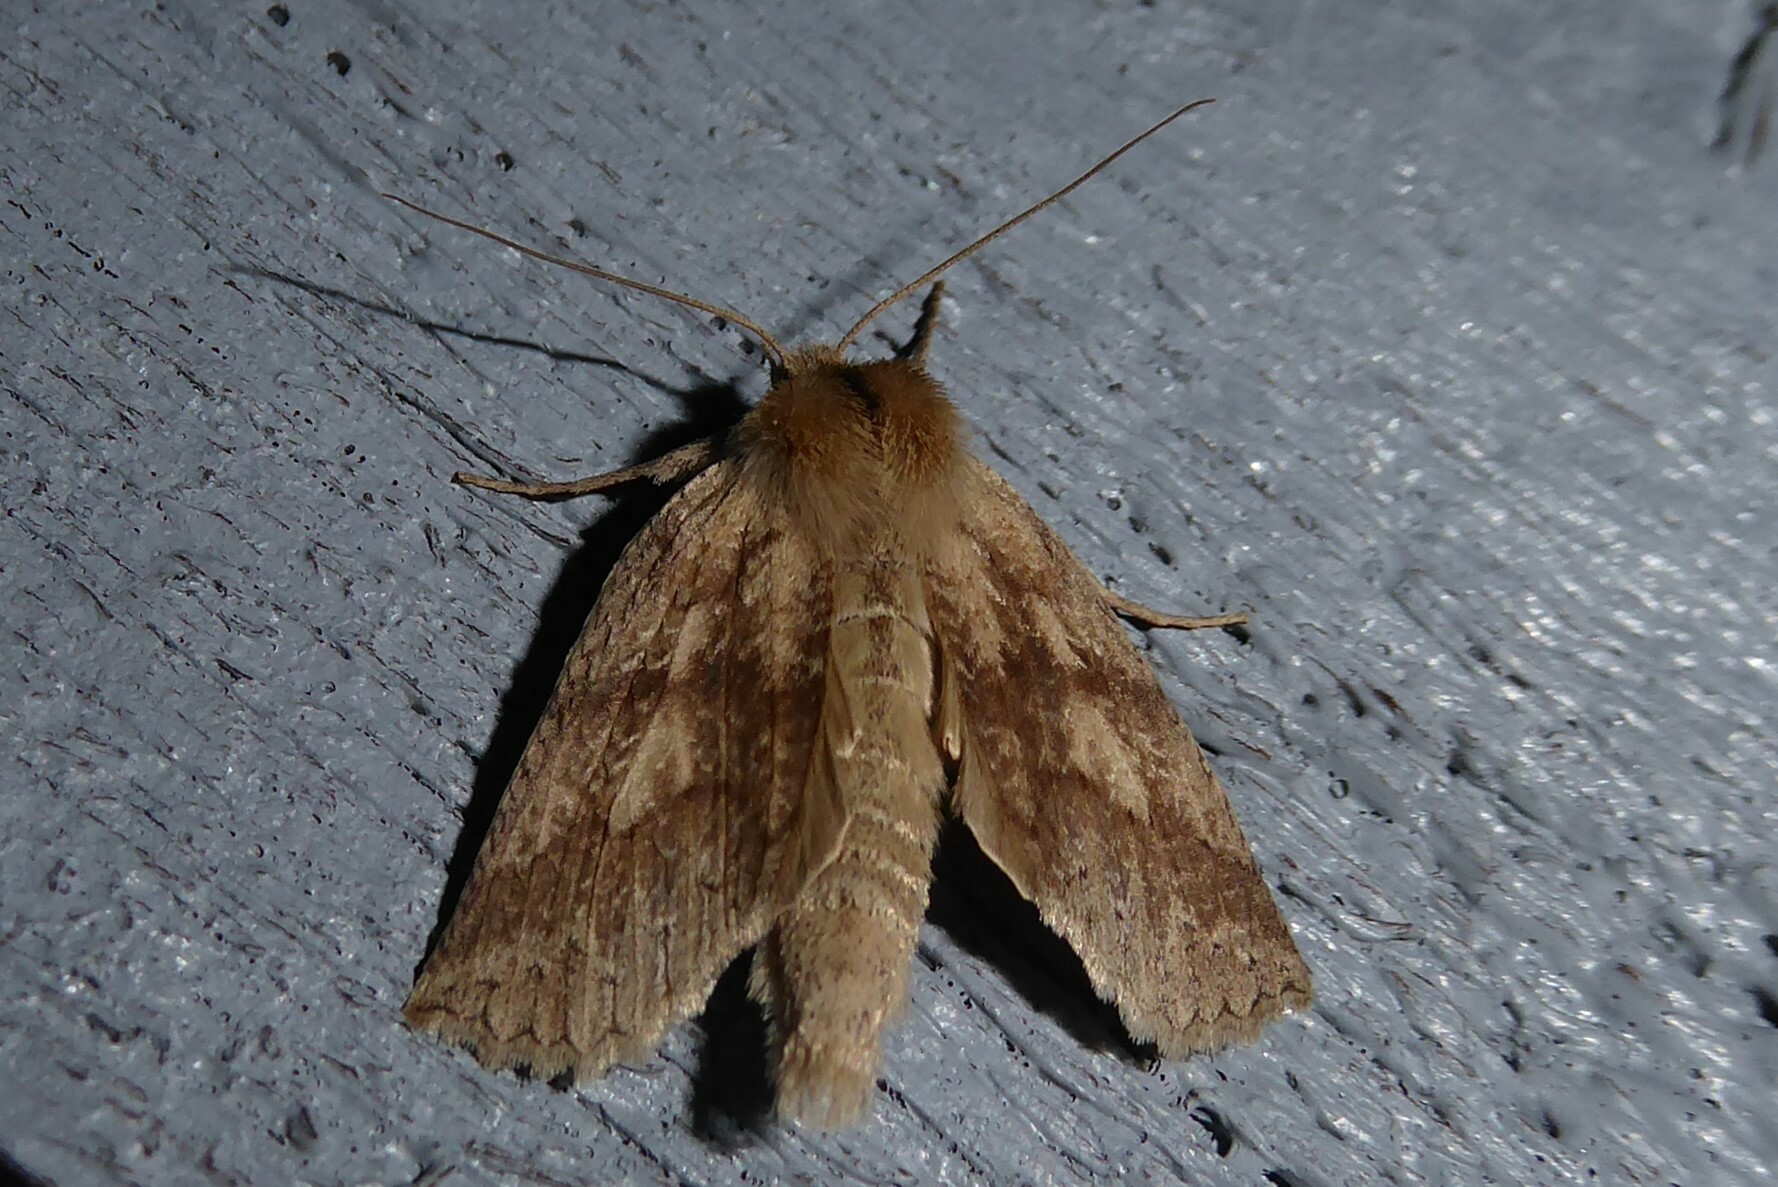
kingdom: Animalia
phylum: Arthropoda
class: Insecta
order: Lepidoptera
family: Geometridae
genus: Declana
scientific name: Declana leptomera
